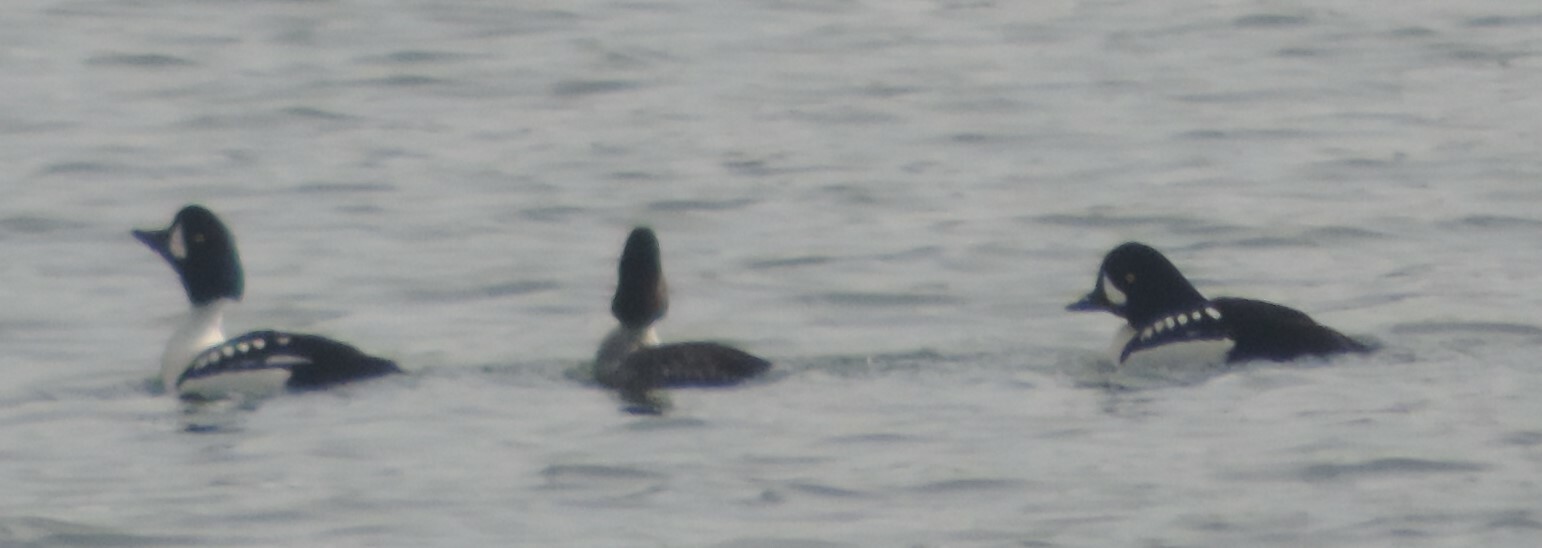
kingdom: Animalia
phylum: Chordata
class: Aves
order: Anseriformes
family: Anatidae
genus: Bucephala
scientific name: Bucephala islandica
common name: Barrow's goldeneye
